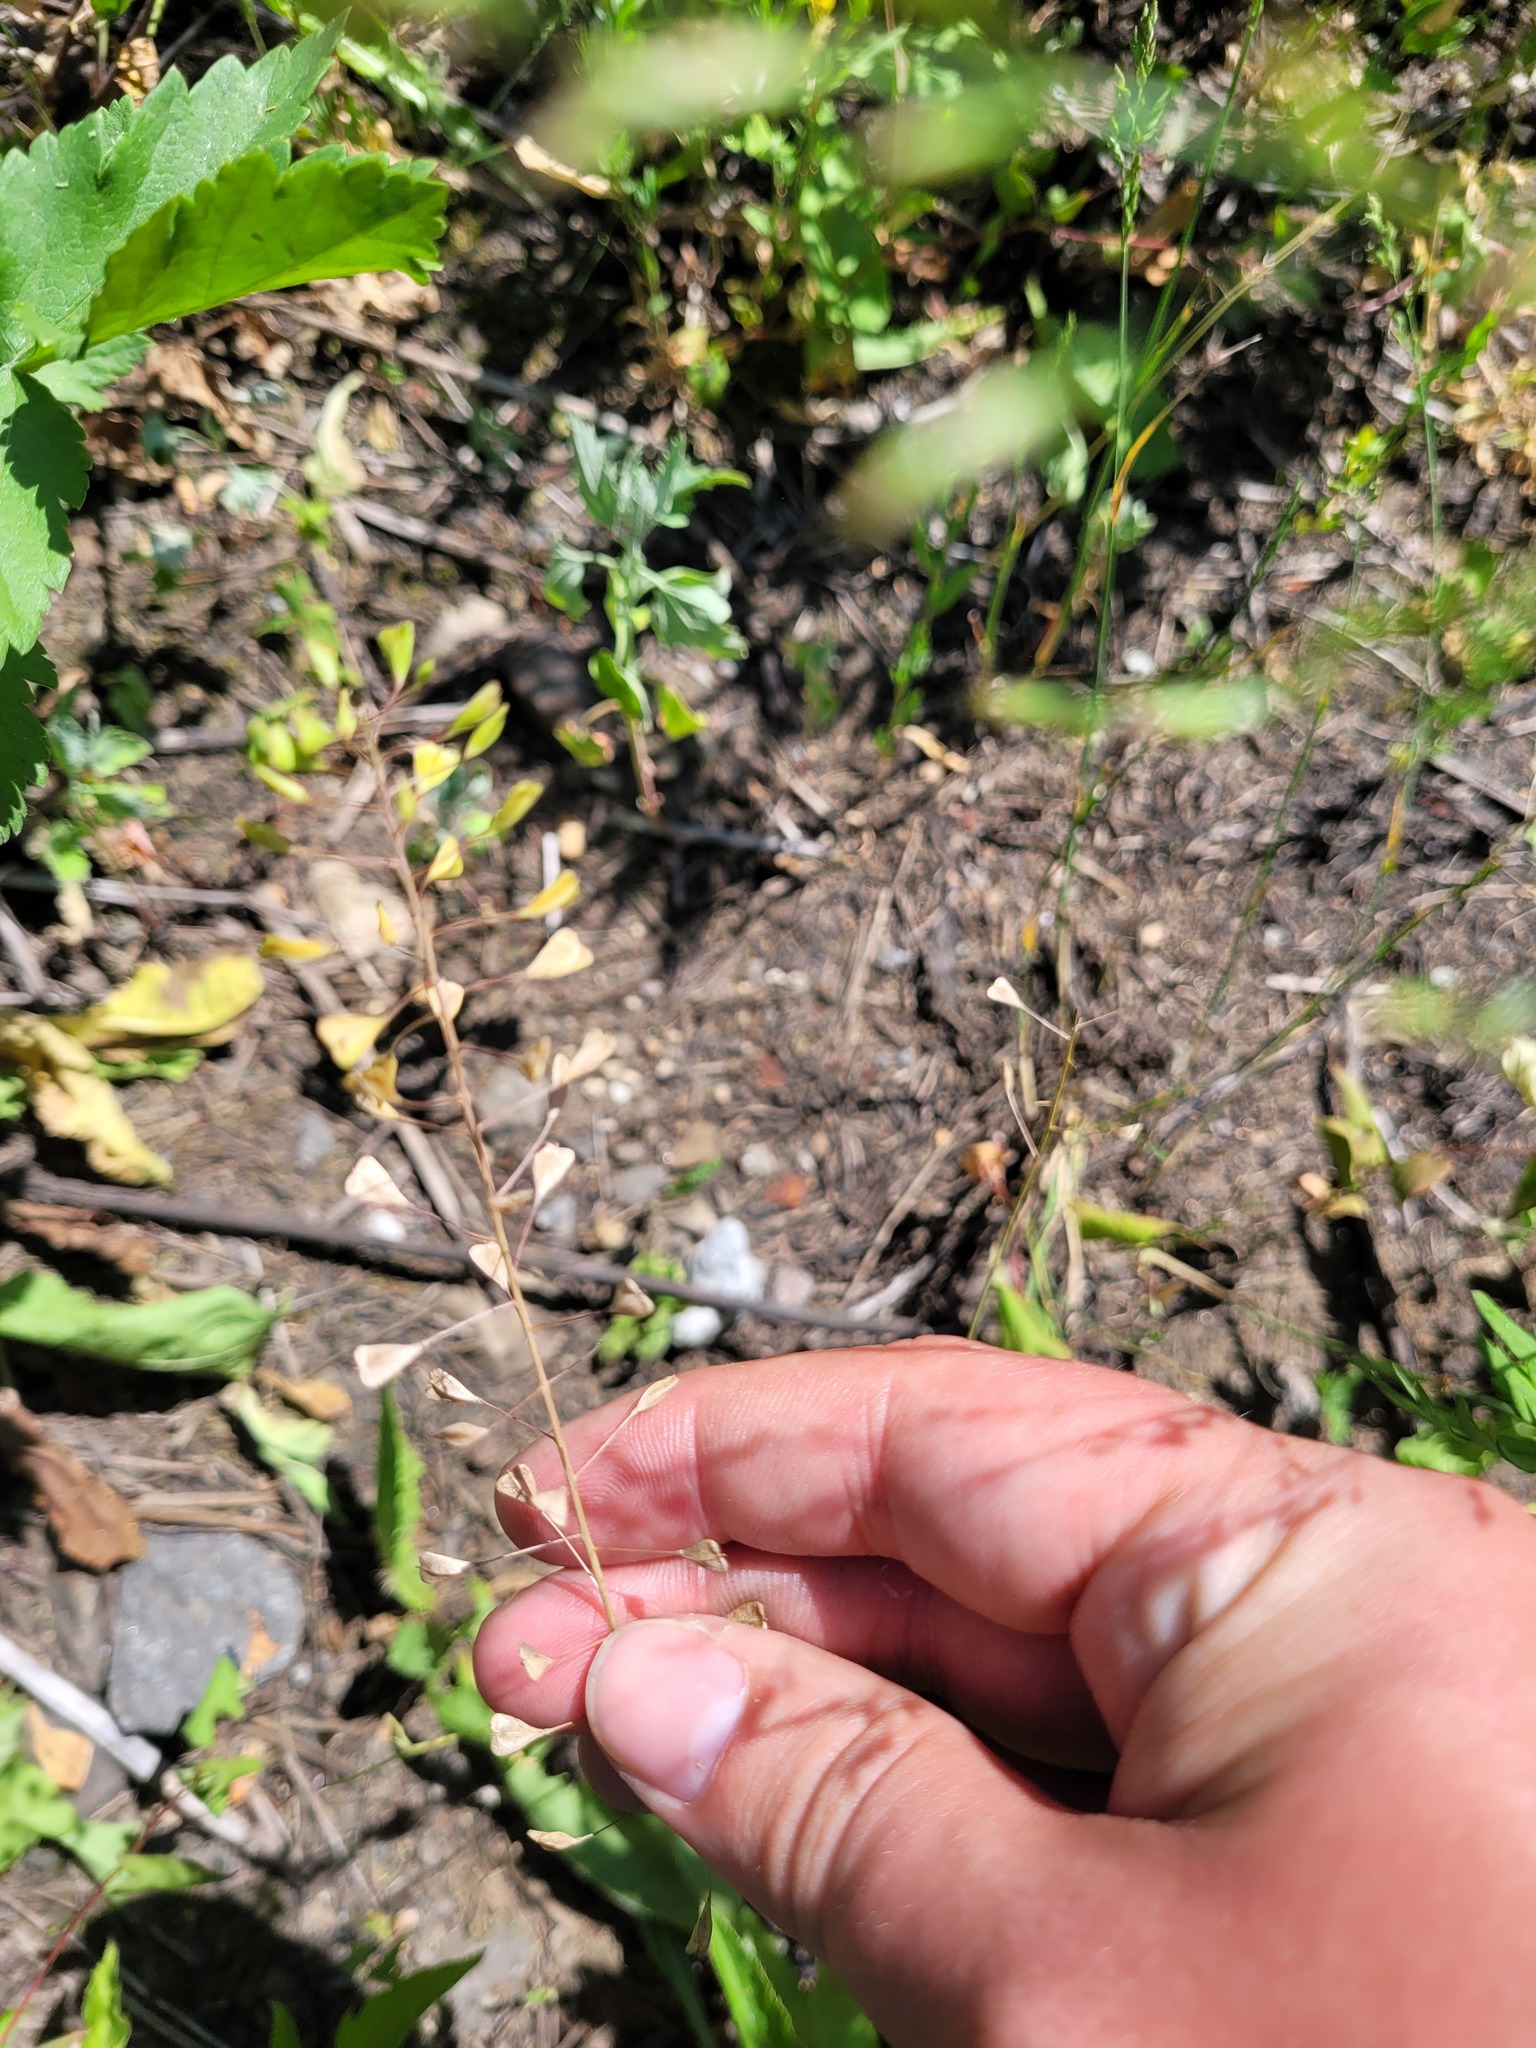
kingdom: Plantae
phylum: Tracheophyta
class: Magnoliopsida
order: Brassicales
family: Brassicaceae
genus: Capsella
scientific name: Capsella bursa-pastoris
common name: Shepherd's purse
